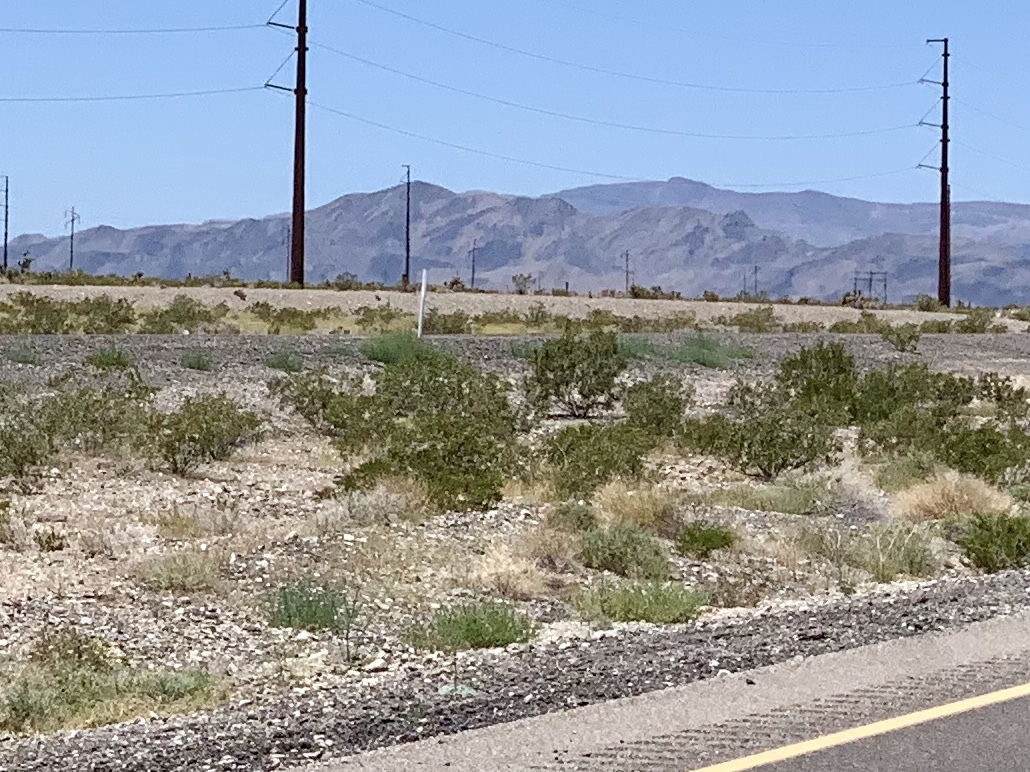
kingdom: Plantae
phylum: Tracheophyta
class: Magnoliopsida
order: Zygophyllales
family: Zygophyllaceae
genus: Larrea
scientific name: Larrea tridentata
